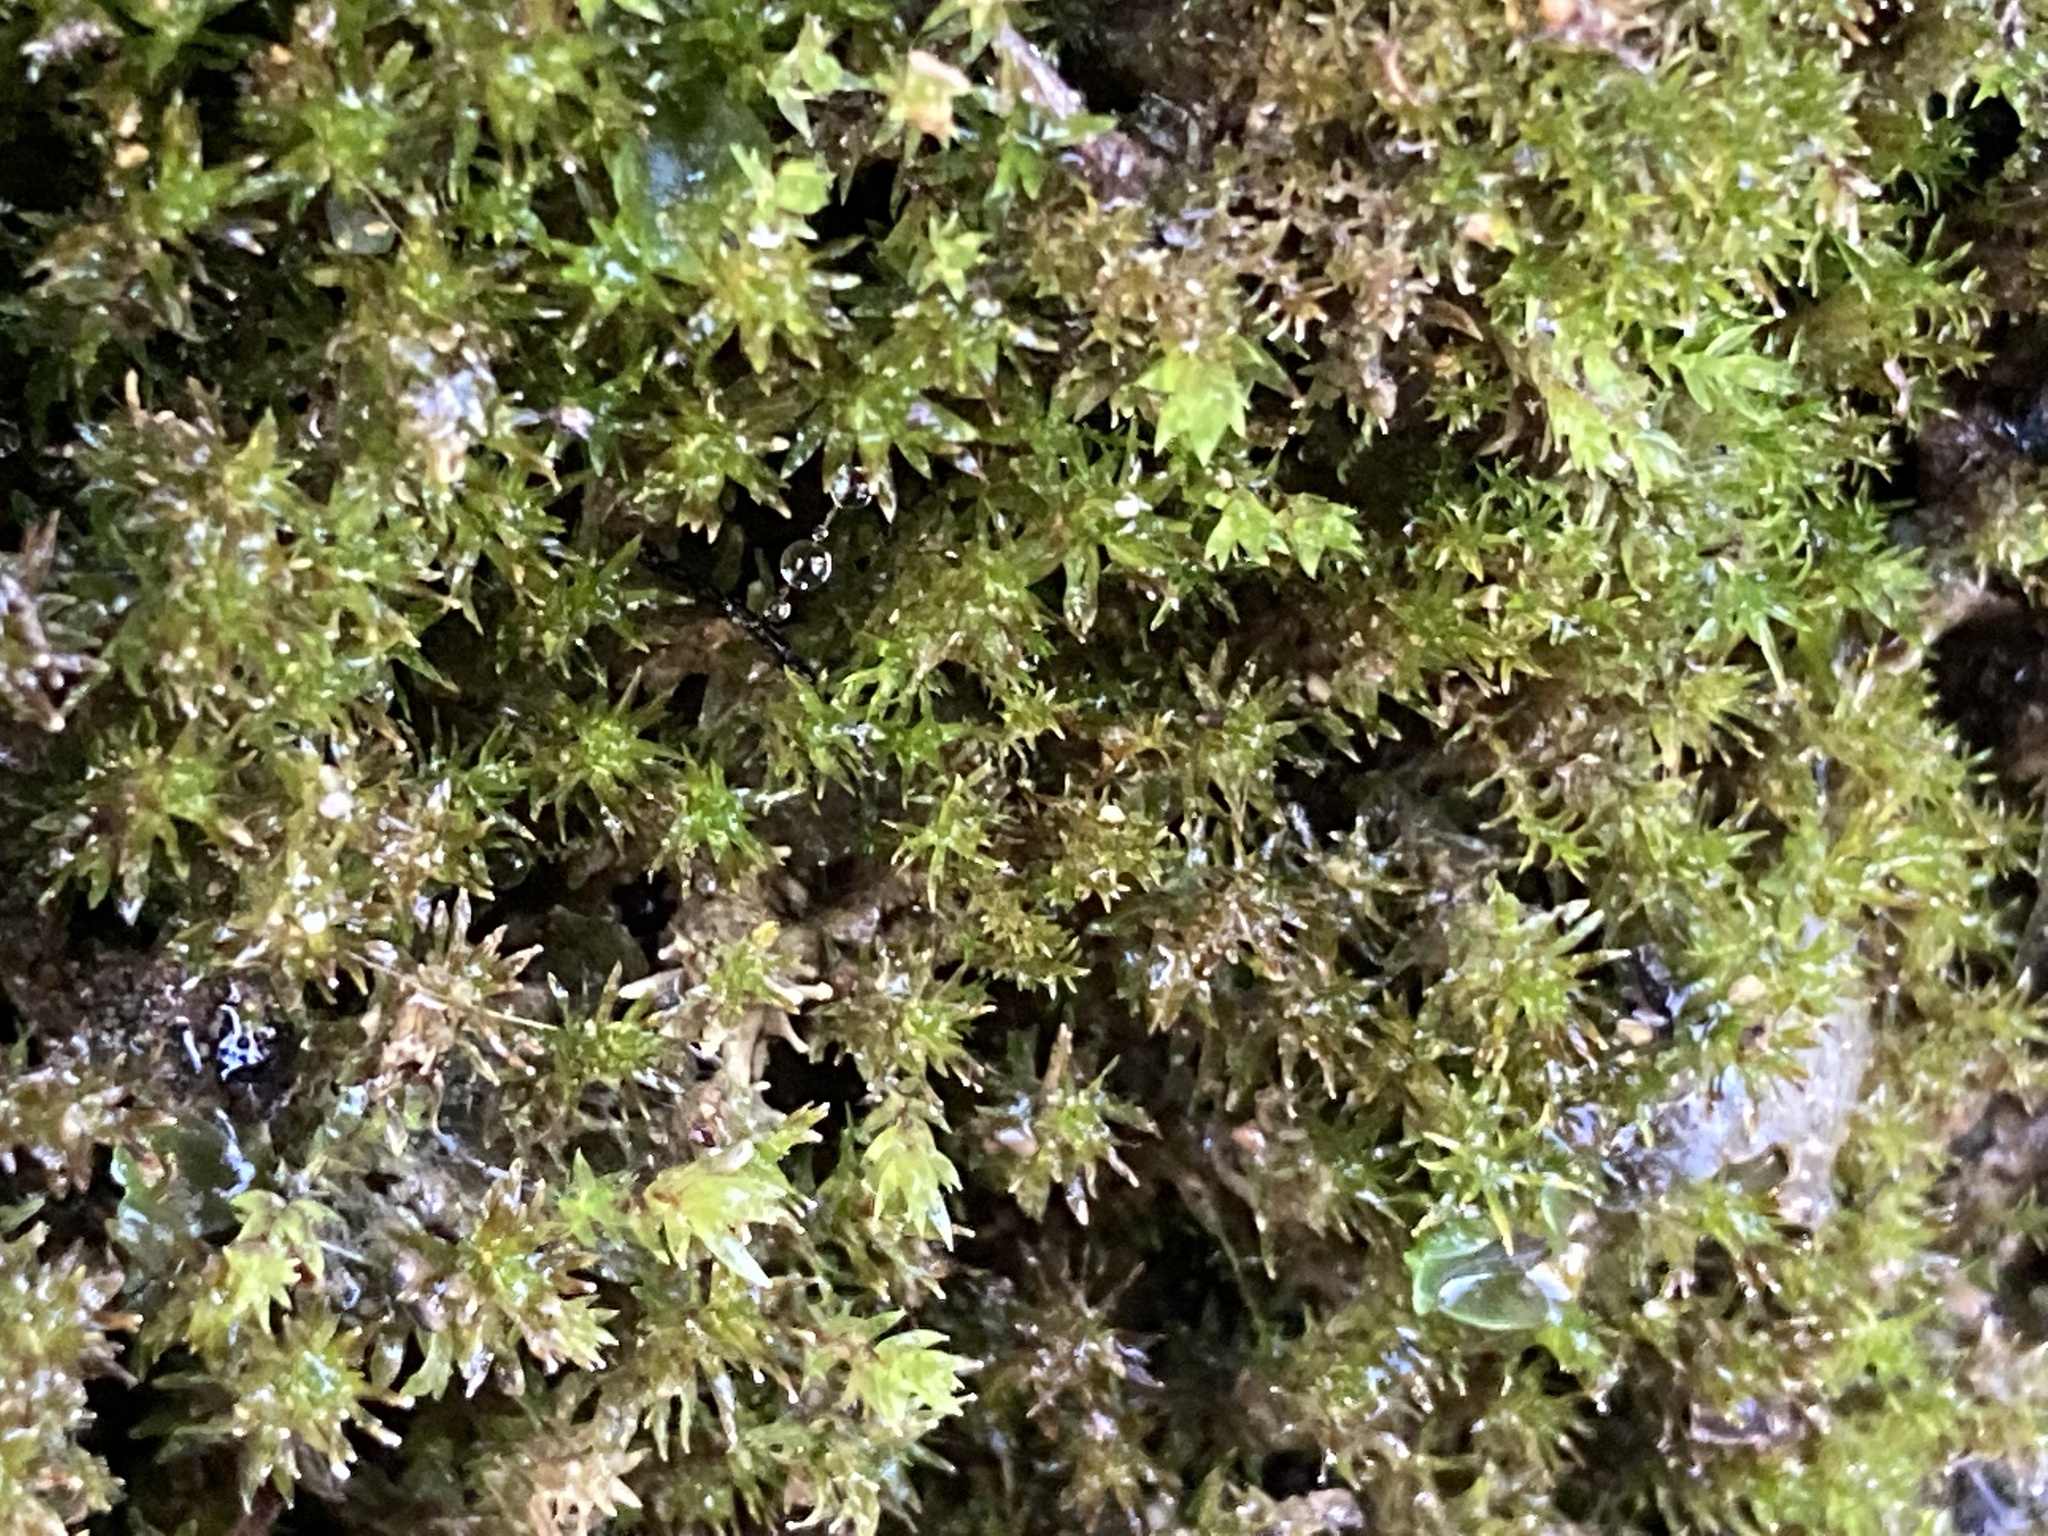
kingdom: Plantae
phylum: Bryophyta
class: Bryopsida
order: Pottiales
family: Pottiaceae
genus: Eucladium
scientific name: Eucladium verticillatum
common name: Whorled tufa-moss
